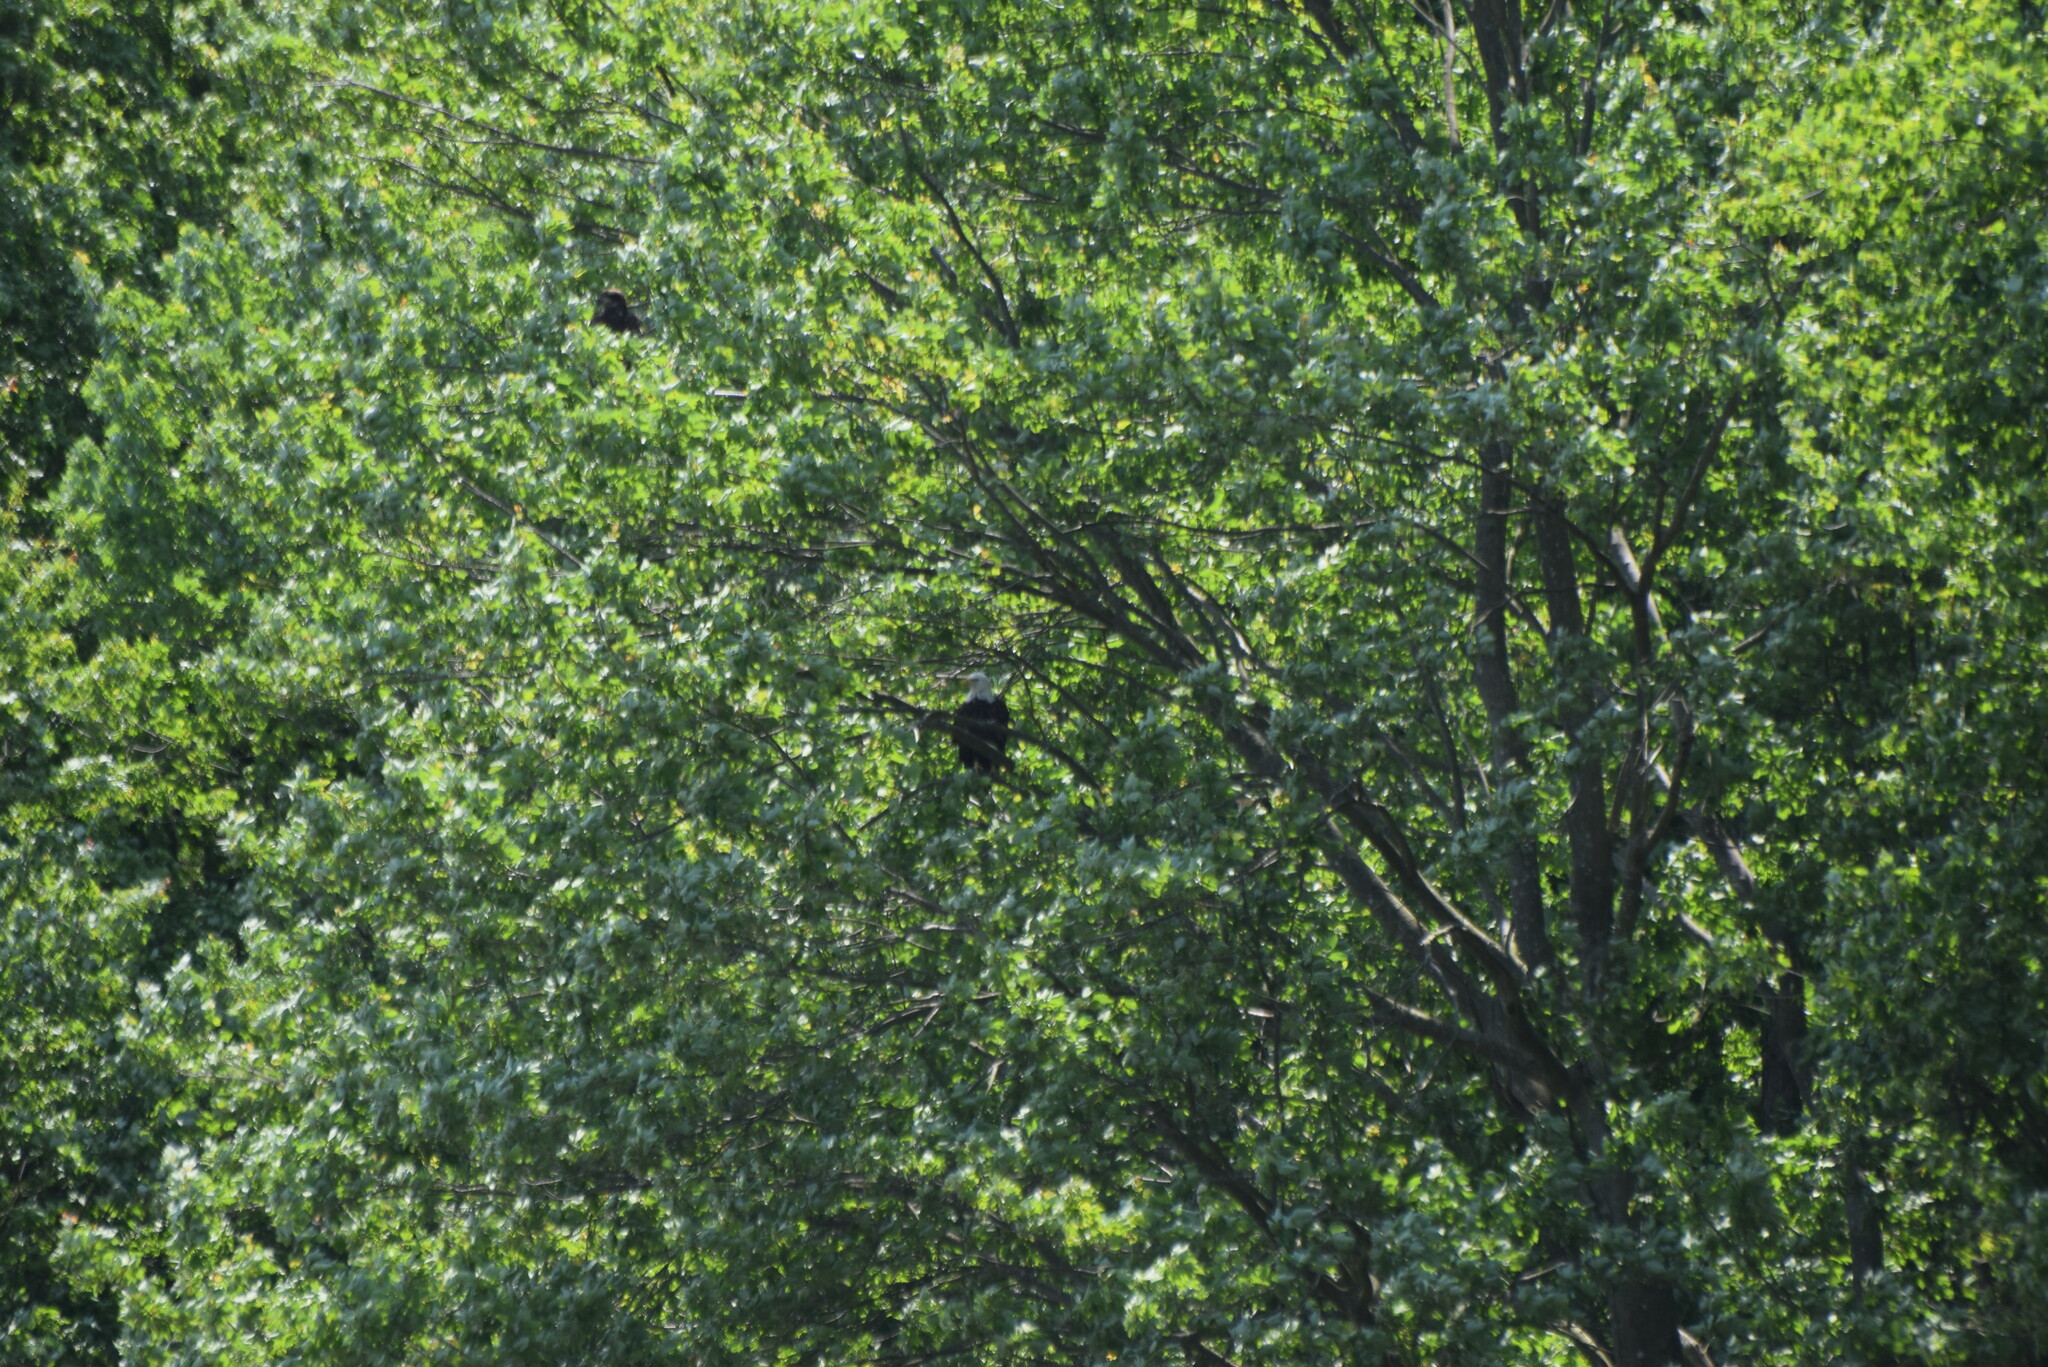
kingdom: Animalia
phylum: Chordata
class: Aves
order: Accipitriformes
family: Accipitridae
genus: Haliaeetus
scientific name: Haliaeetus leucocephalus
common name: Bald eagle
